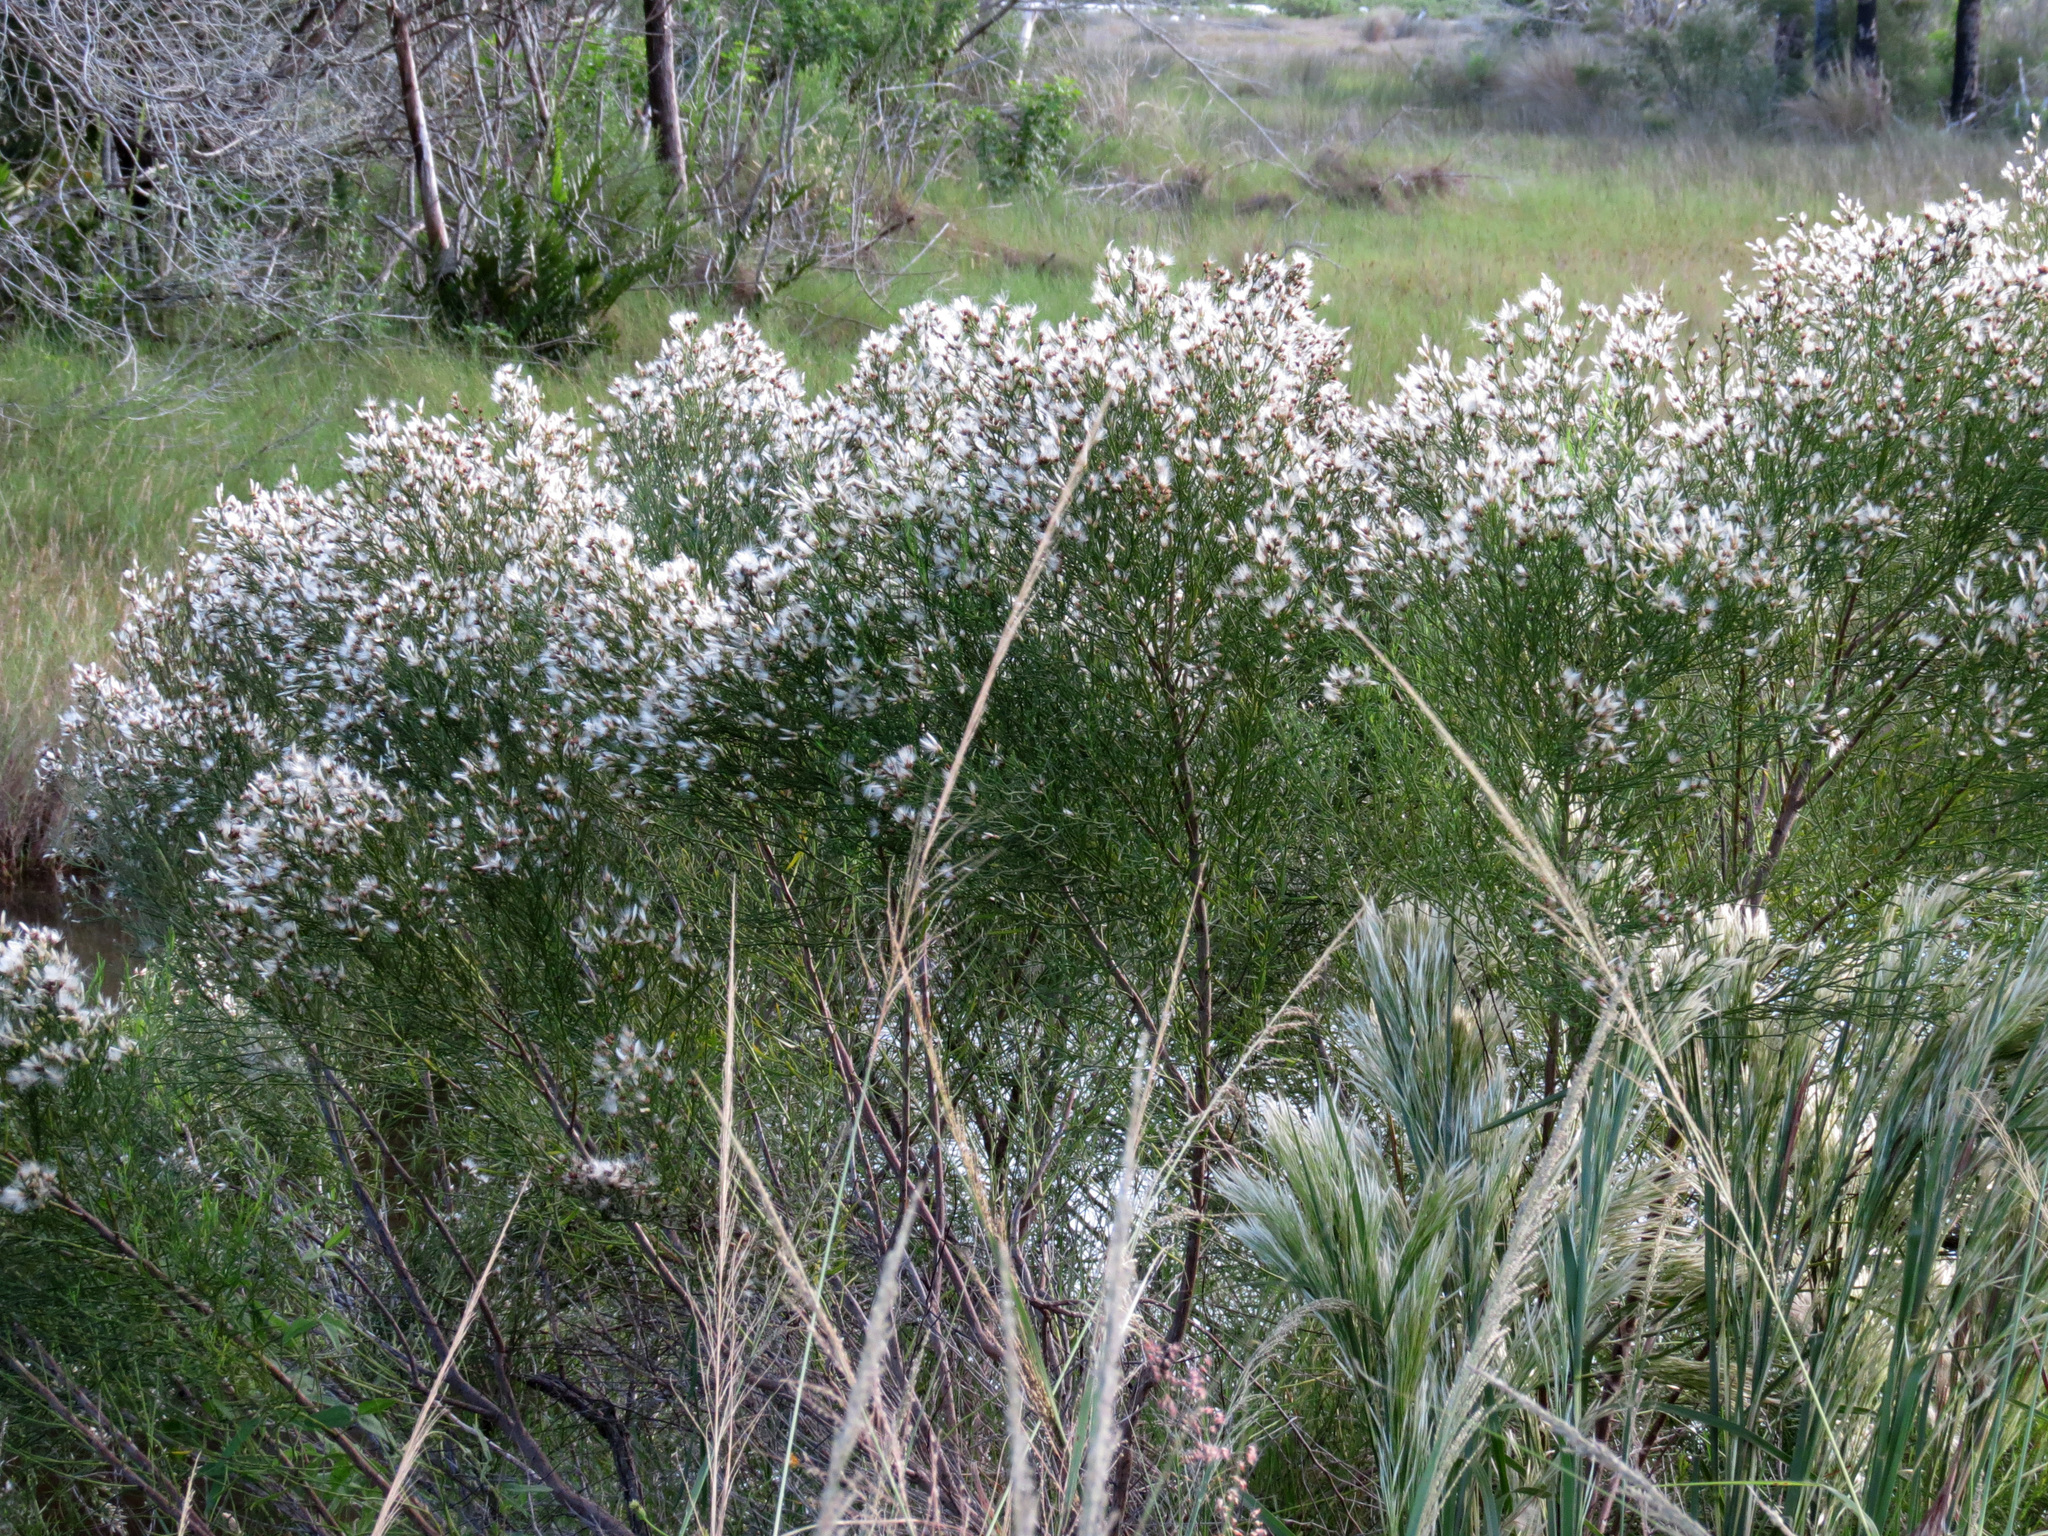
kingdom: Plantae
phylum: Tracheophyta
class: Magnoliopsida
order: Asterales
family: Asteraceae
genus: Baccharis
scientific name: Baccharis angustifolia
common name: Narrow-leaf baccharis
